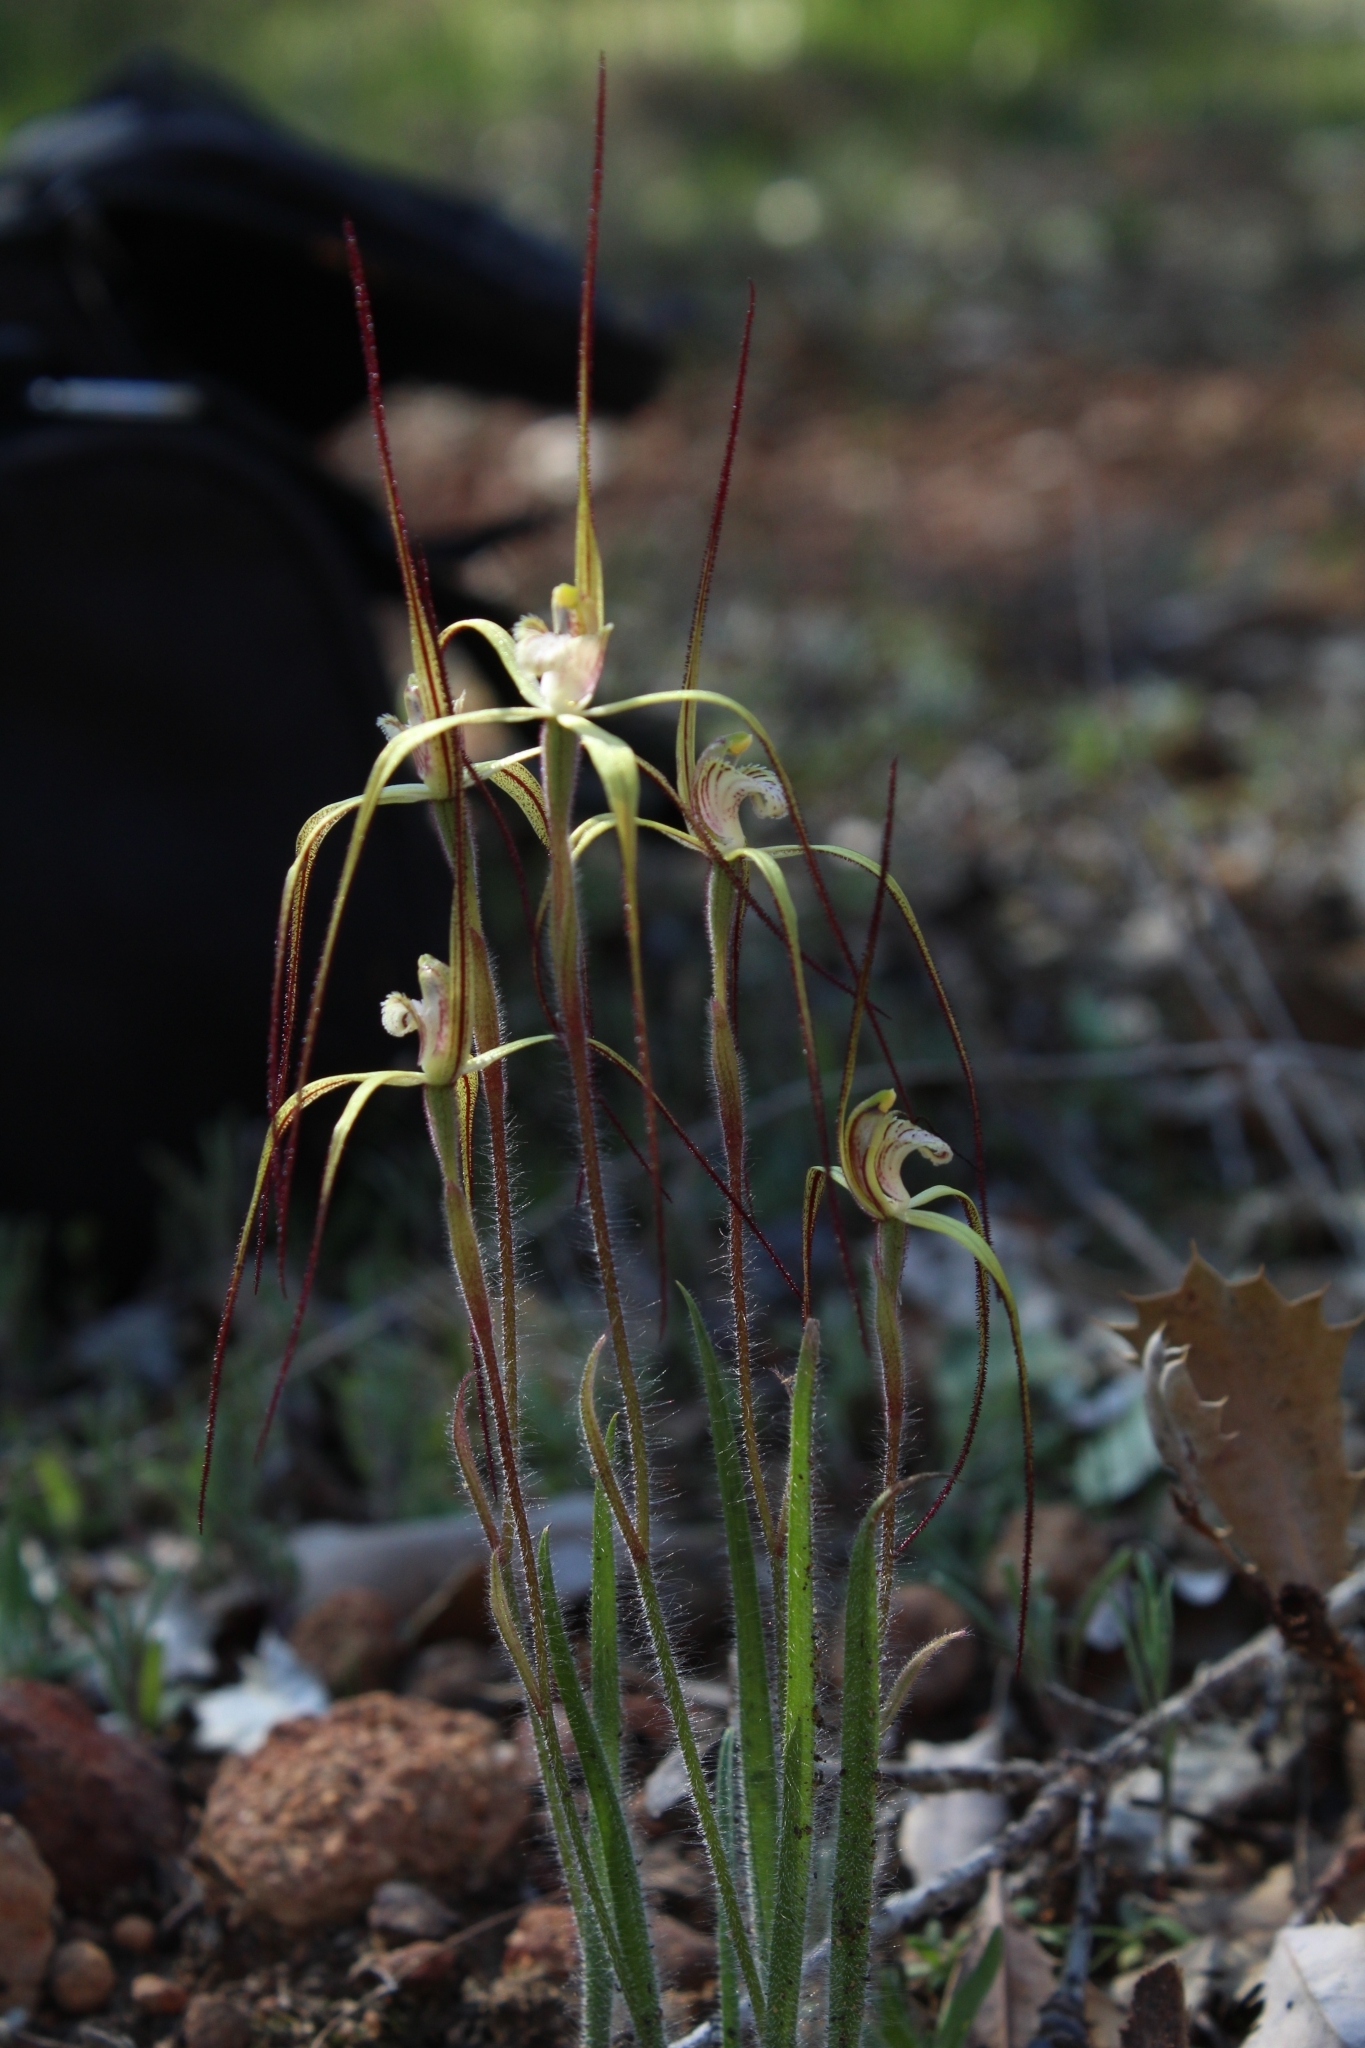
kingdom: Plantae
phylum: Tracheophyta
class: Liliopsida
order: Asparagales
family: Orchidaceae
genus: Caladenia
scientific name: Caladenia xantha
